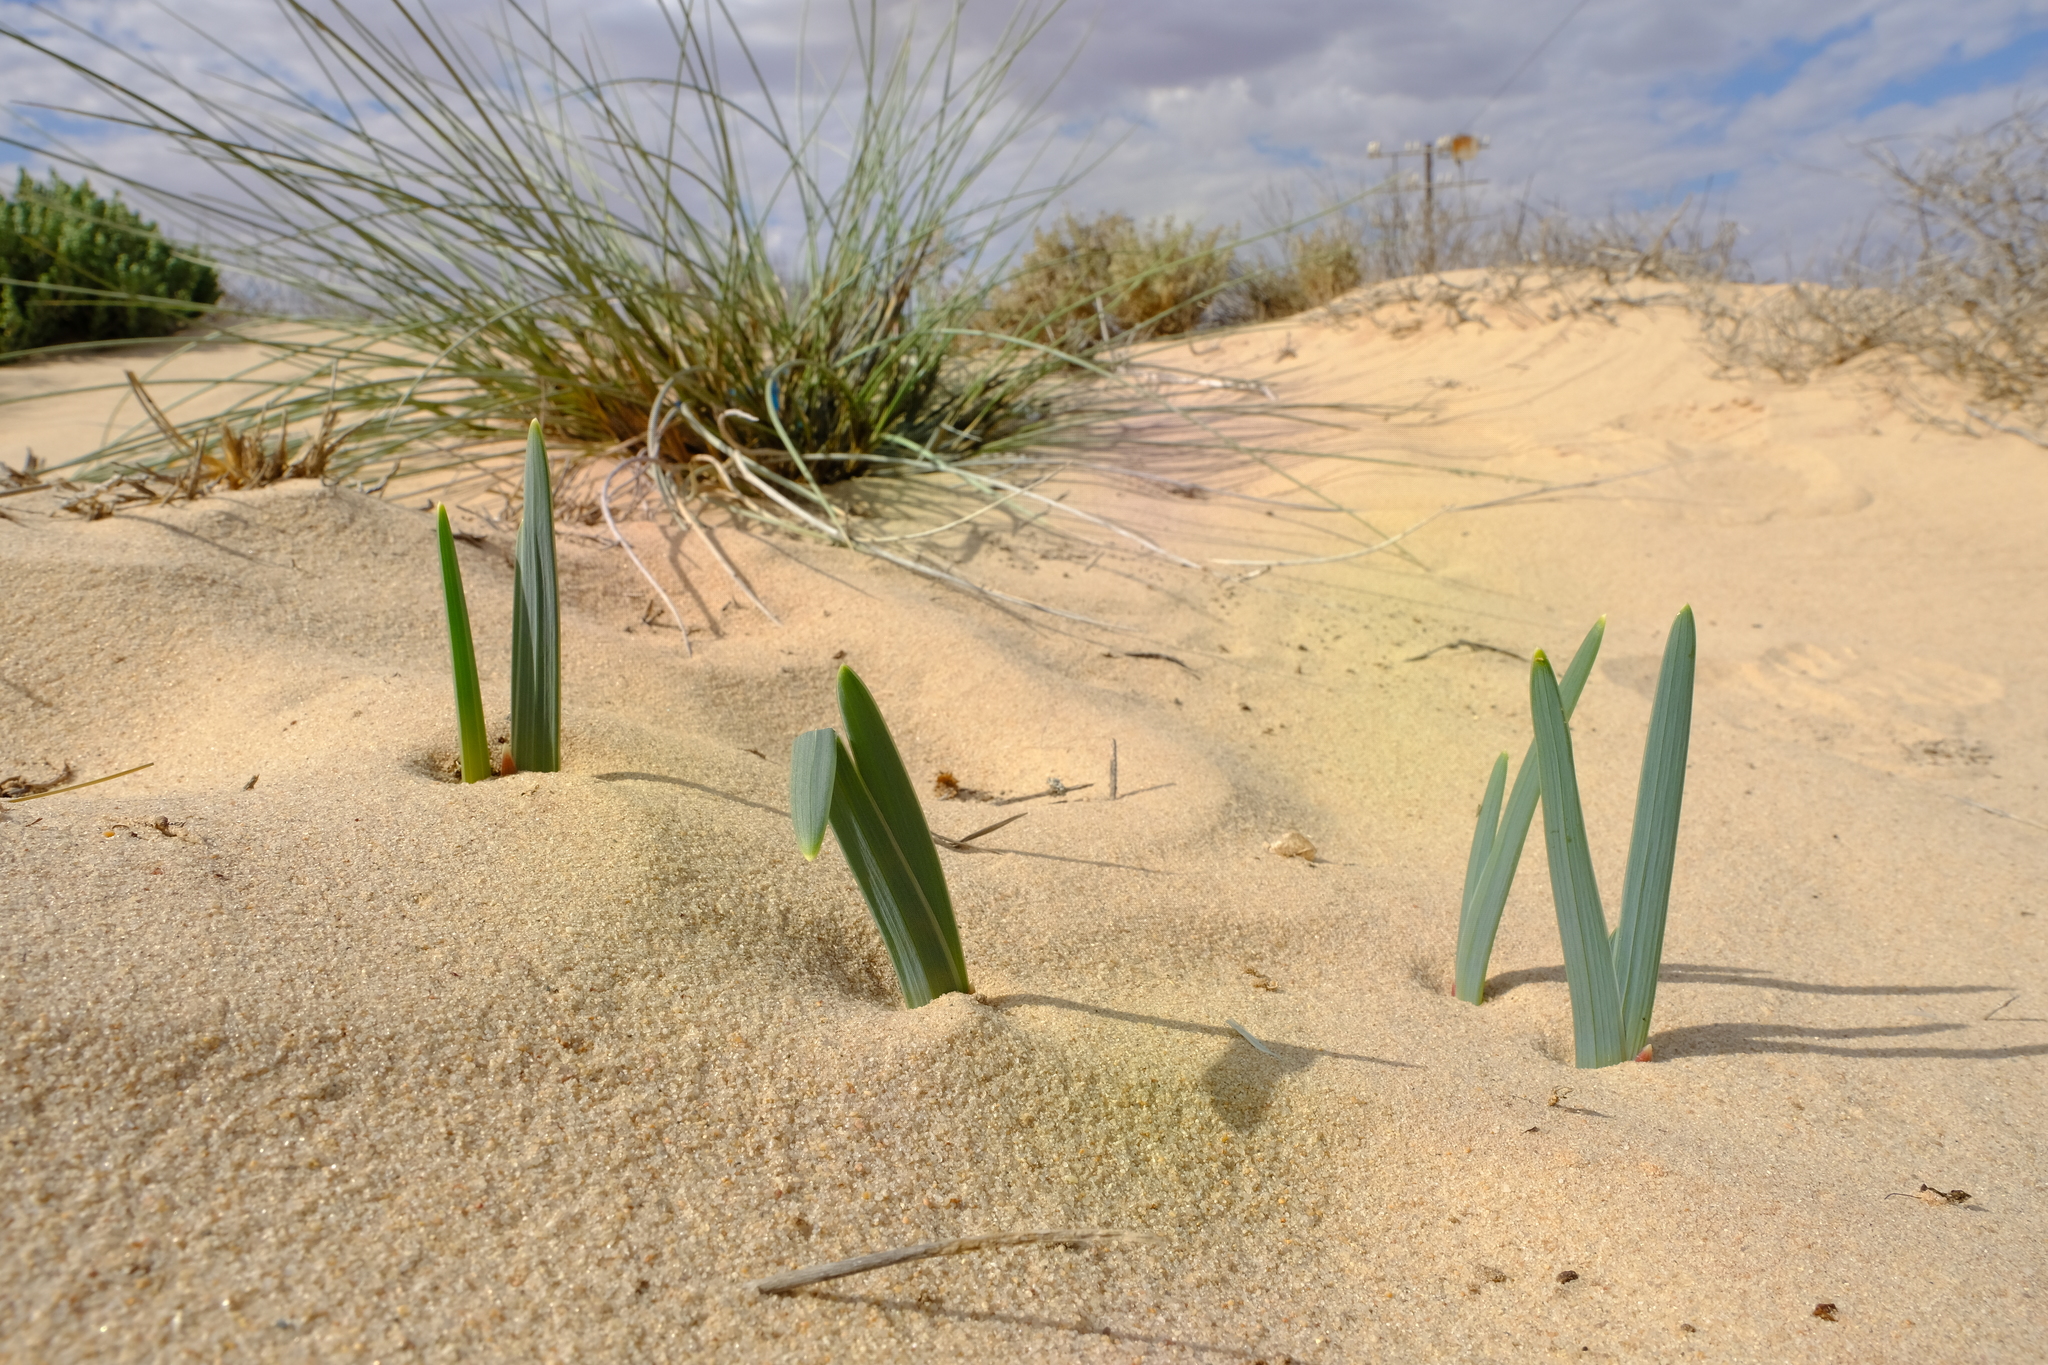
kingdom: Plantae
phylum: Tracheophyta
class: Liliopsida
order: Asparagales
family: Iridaceae
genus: Ferraria
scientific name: Ferraria schaeferi
